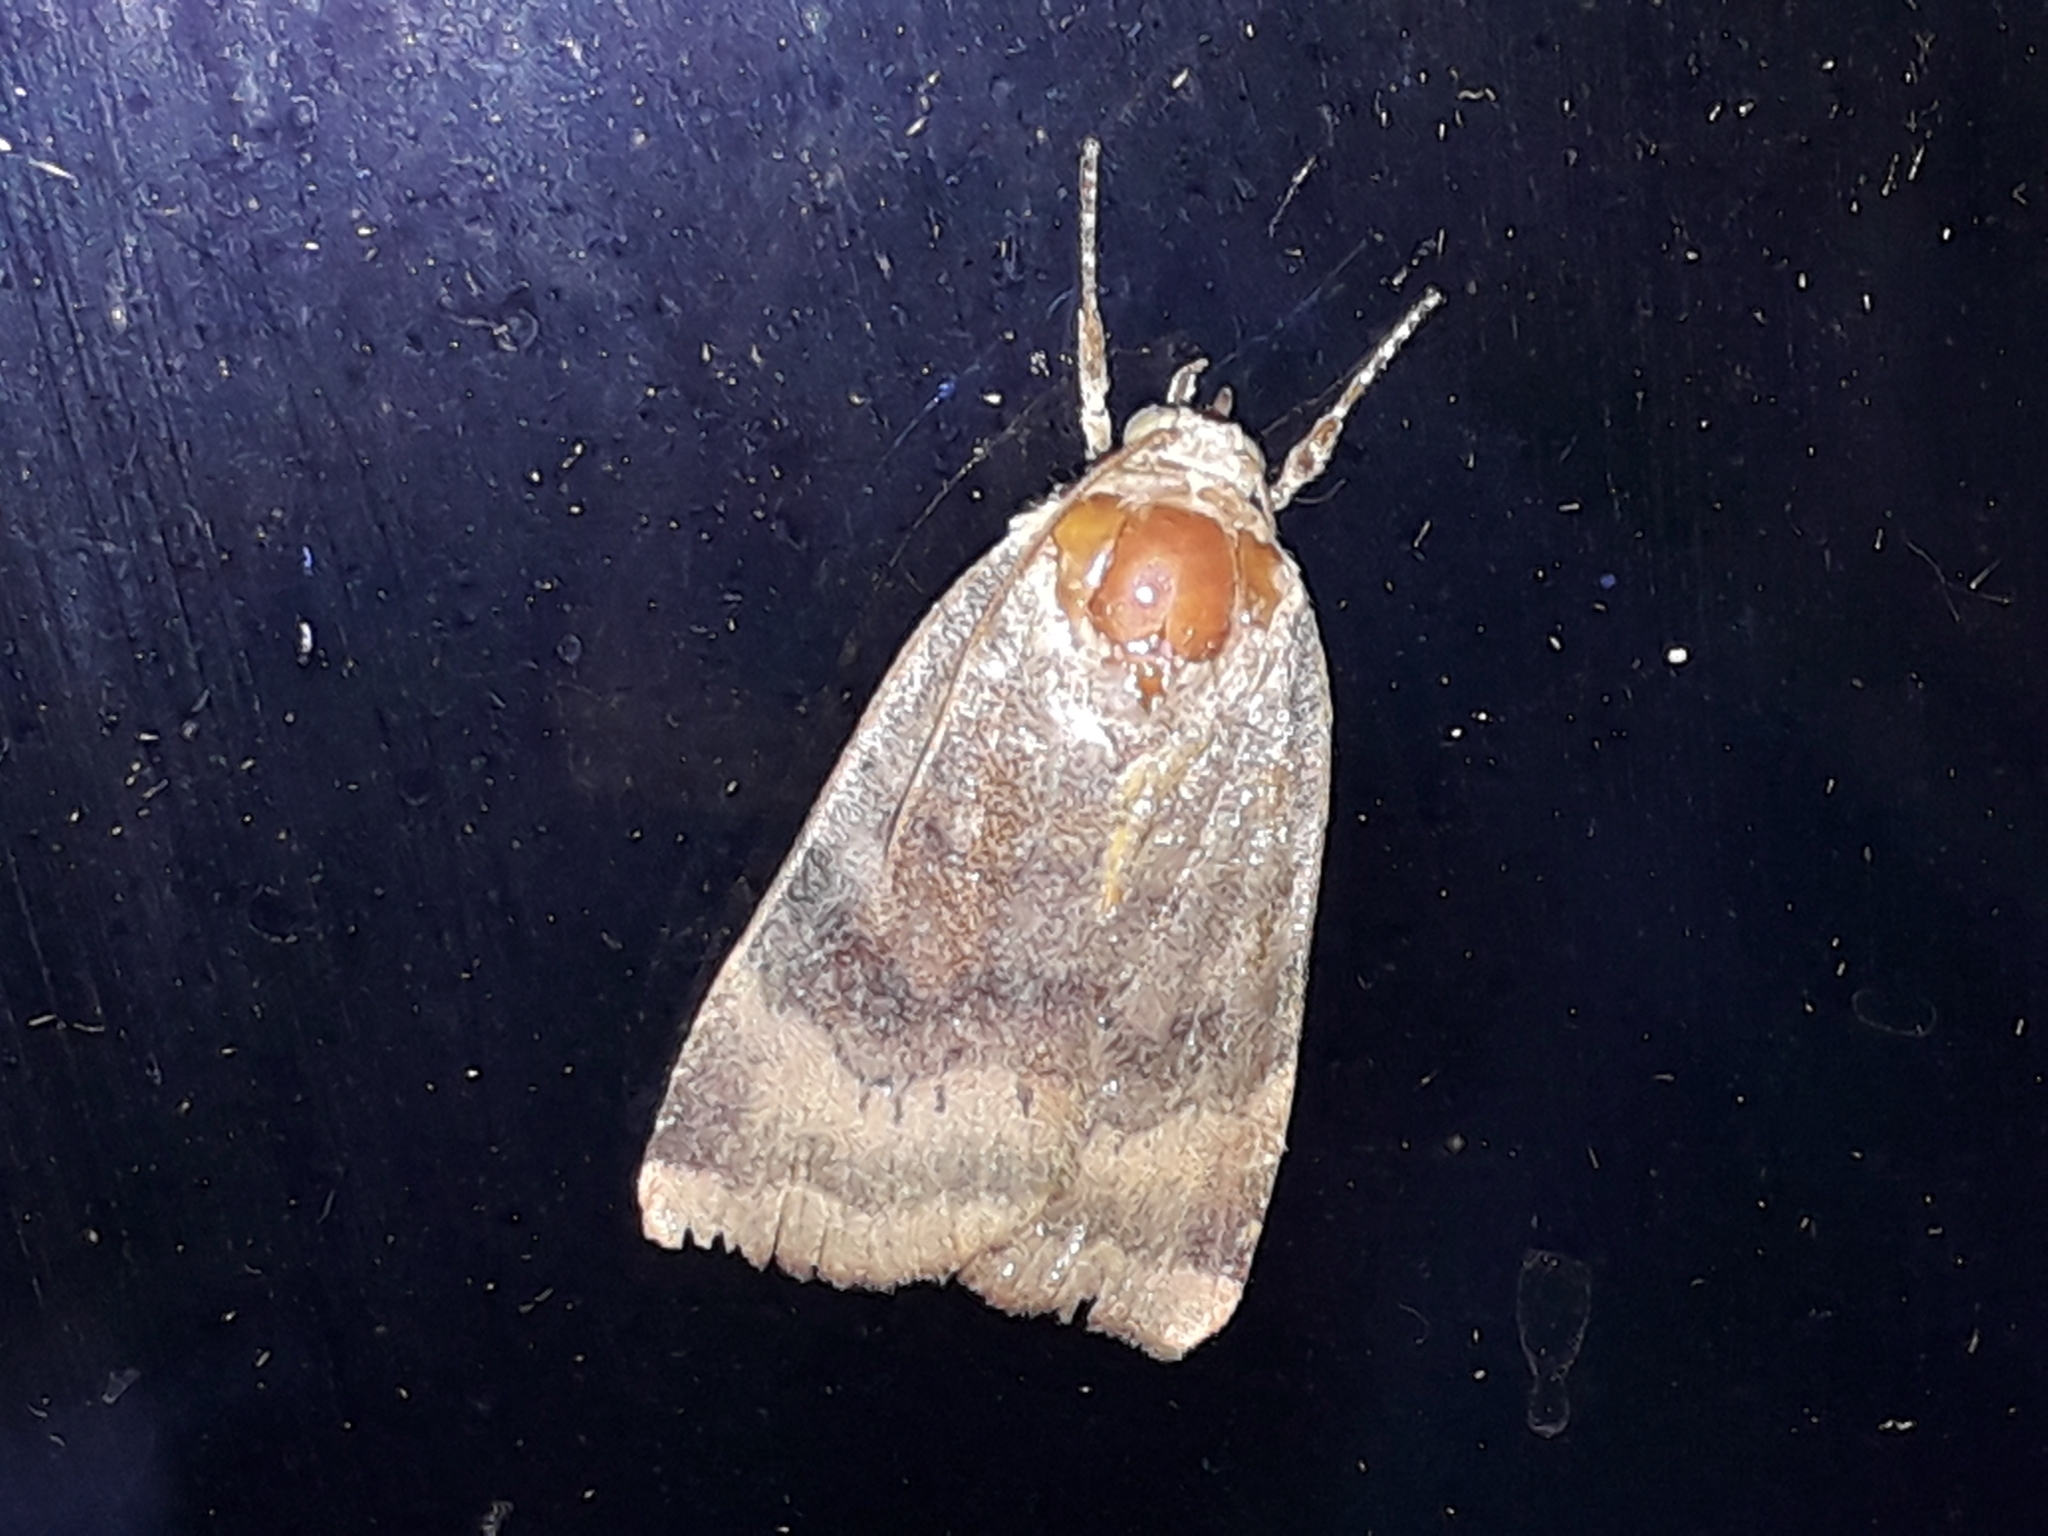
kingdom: Animalia
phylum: Arthropoda
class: Insecta
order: Lepidoptera
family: Noctuidae
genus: Noctua
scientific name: Noctua
